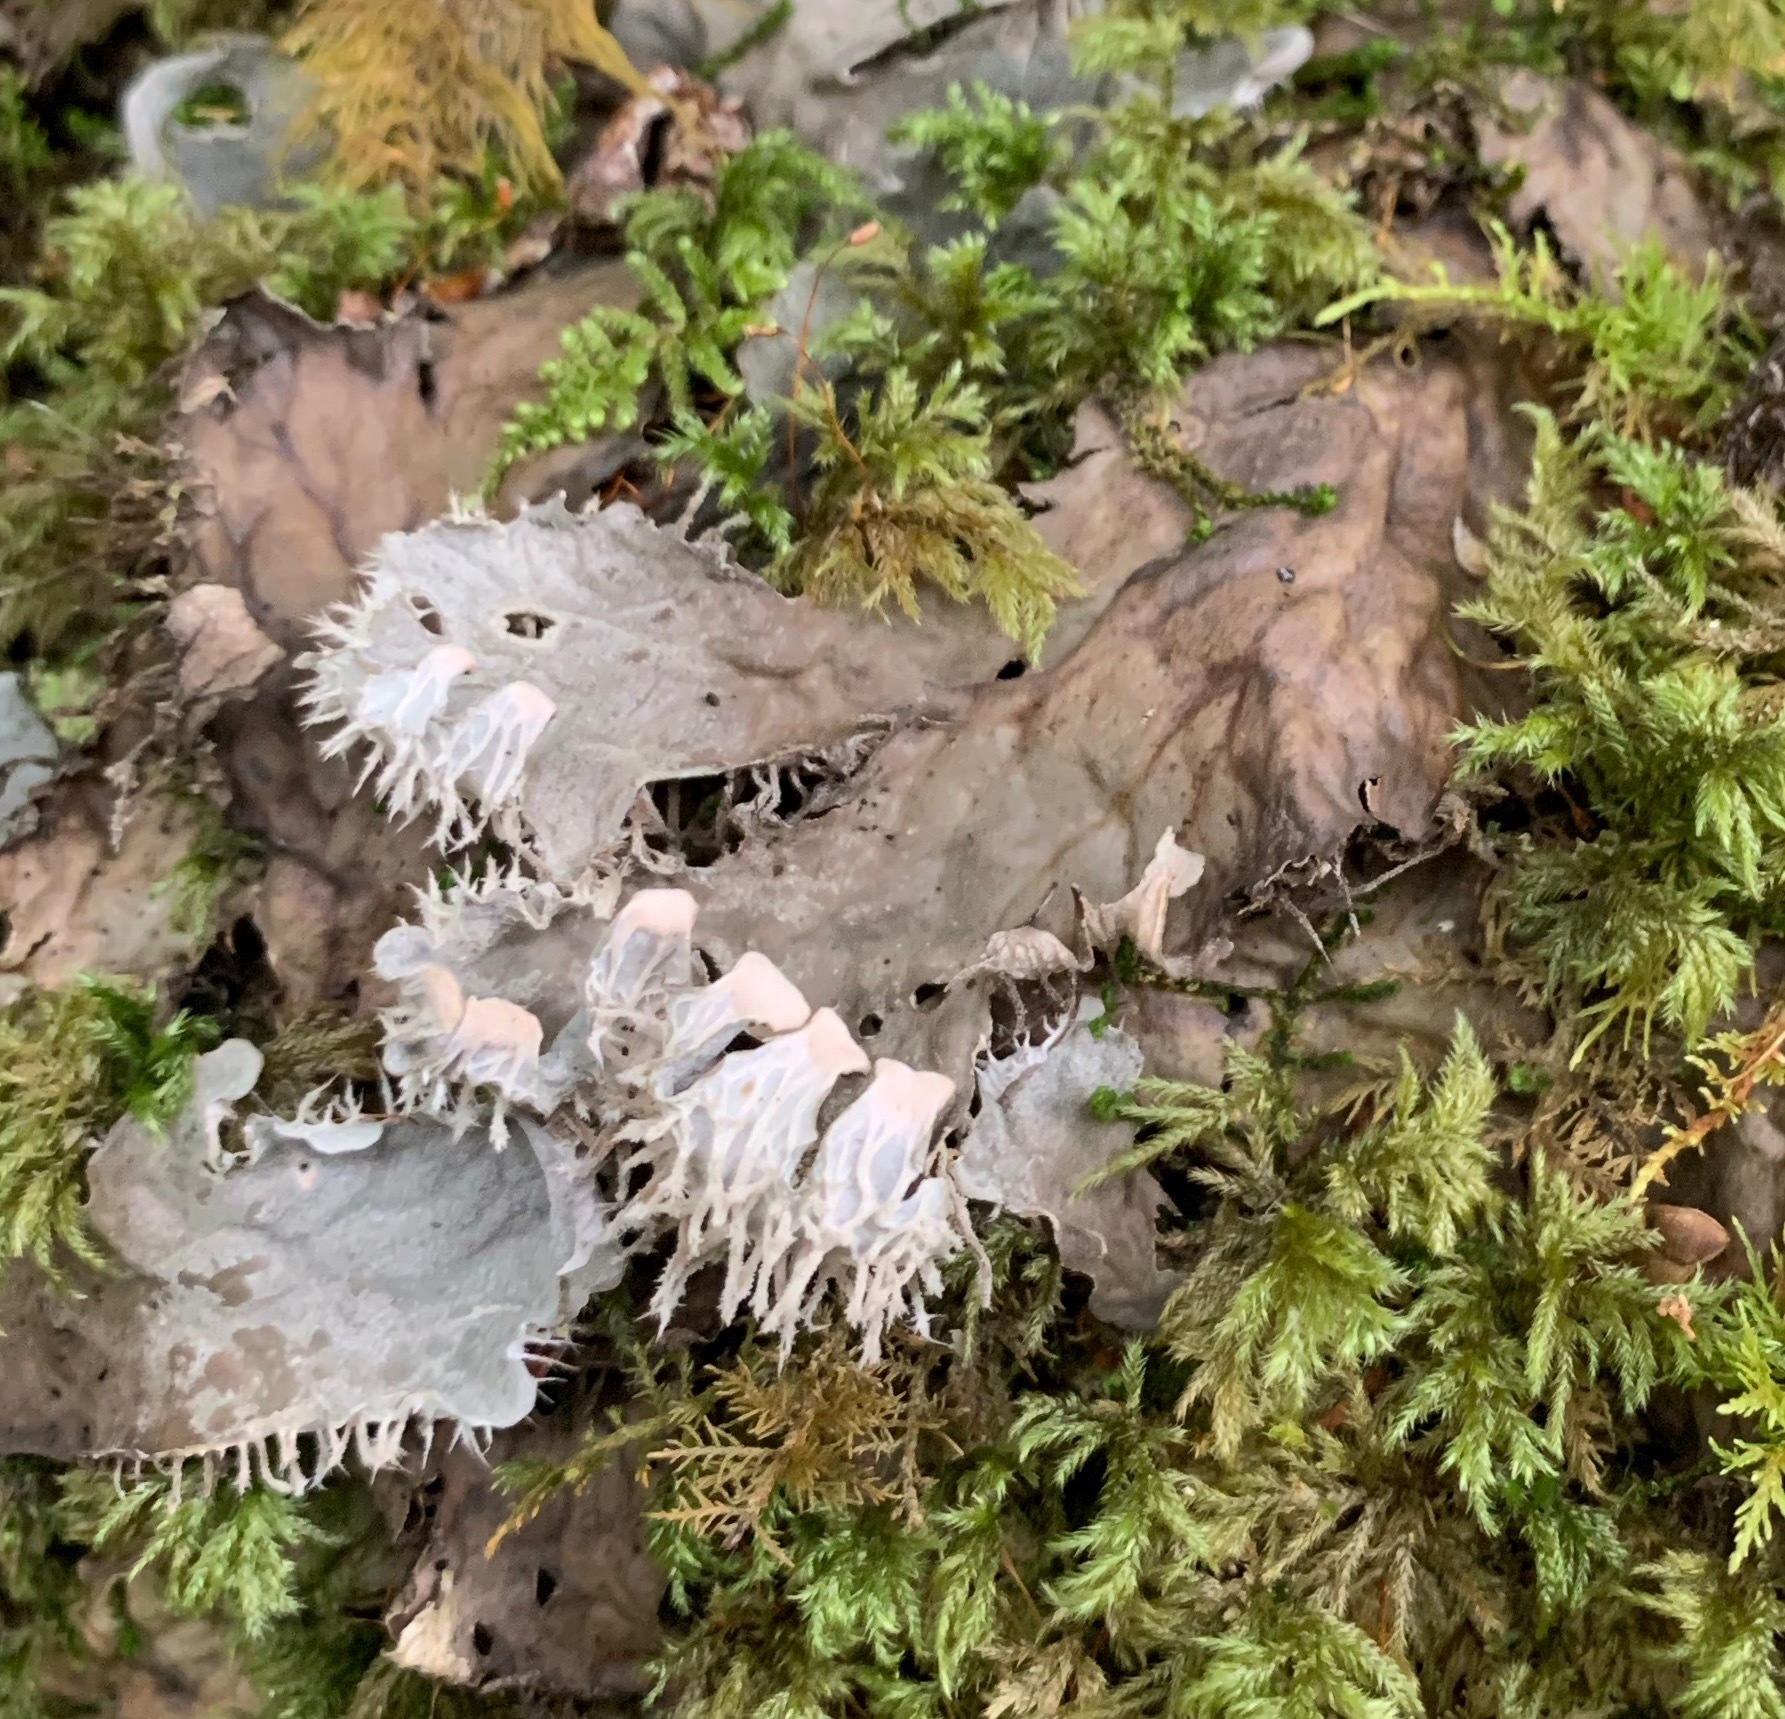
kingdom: Fungi
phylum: Ascomycota
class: Lecanoromycetes
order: Peltigerales
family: Peltigeraceae
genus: Peltigera
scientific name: Peltigera membranacea
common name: Membranous pelt lichen
